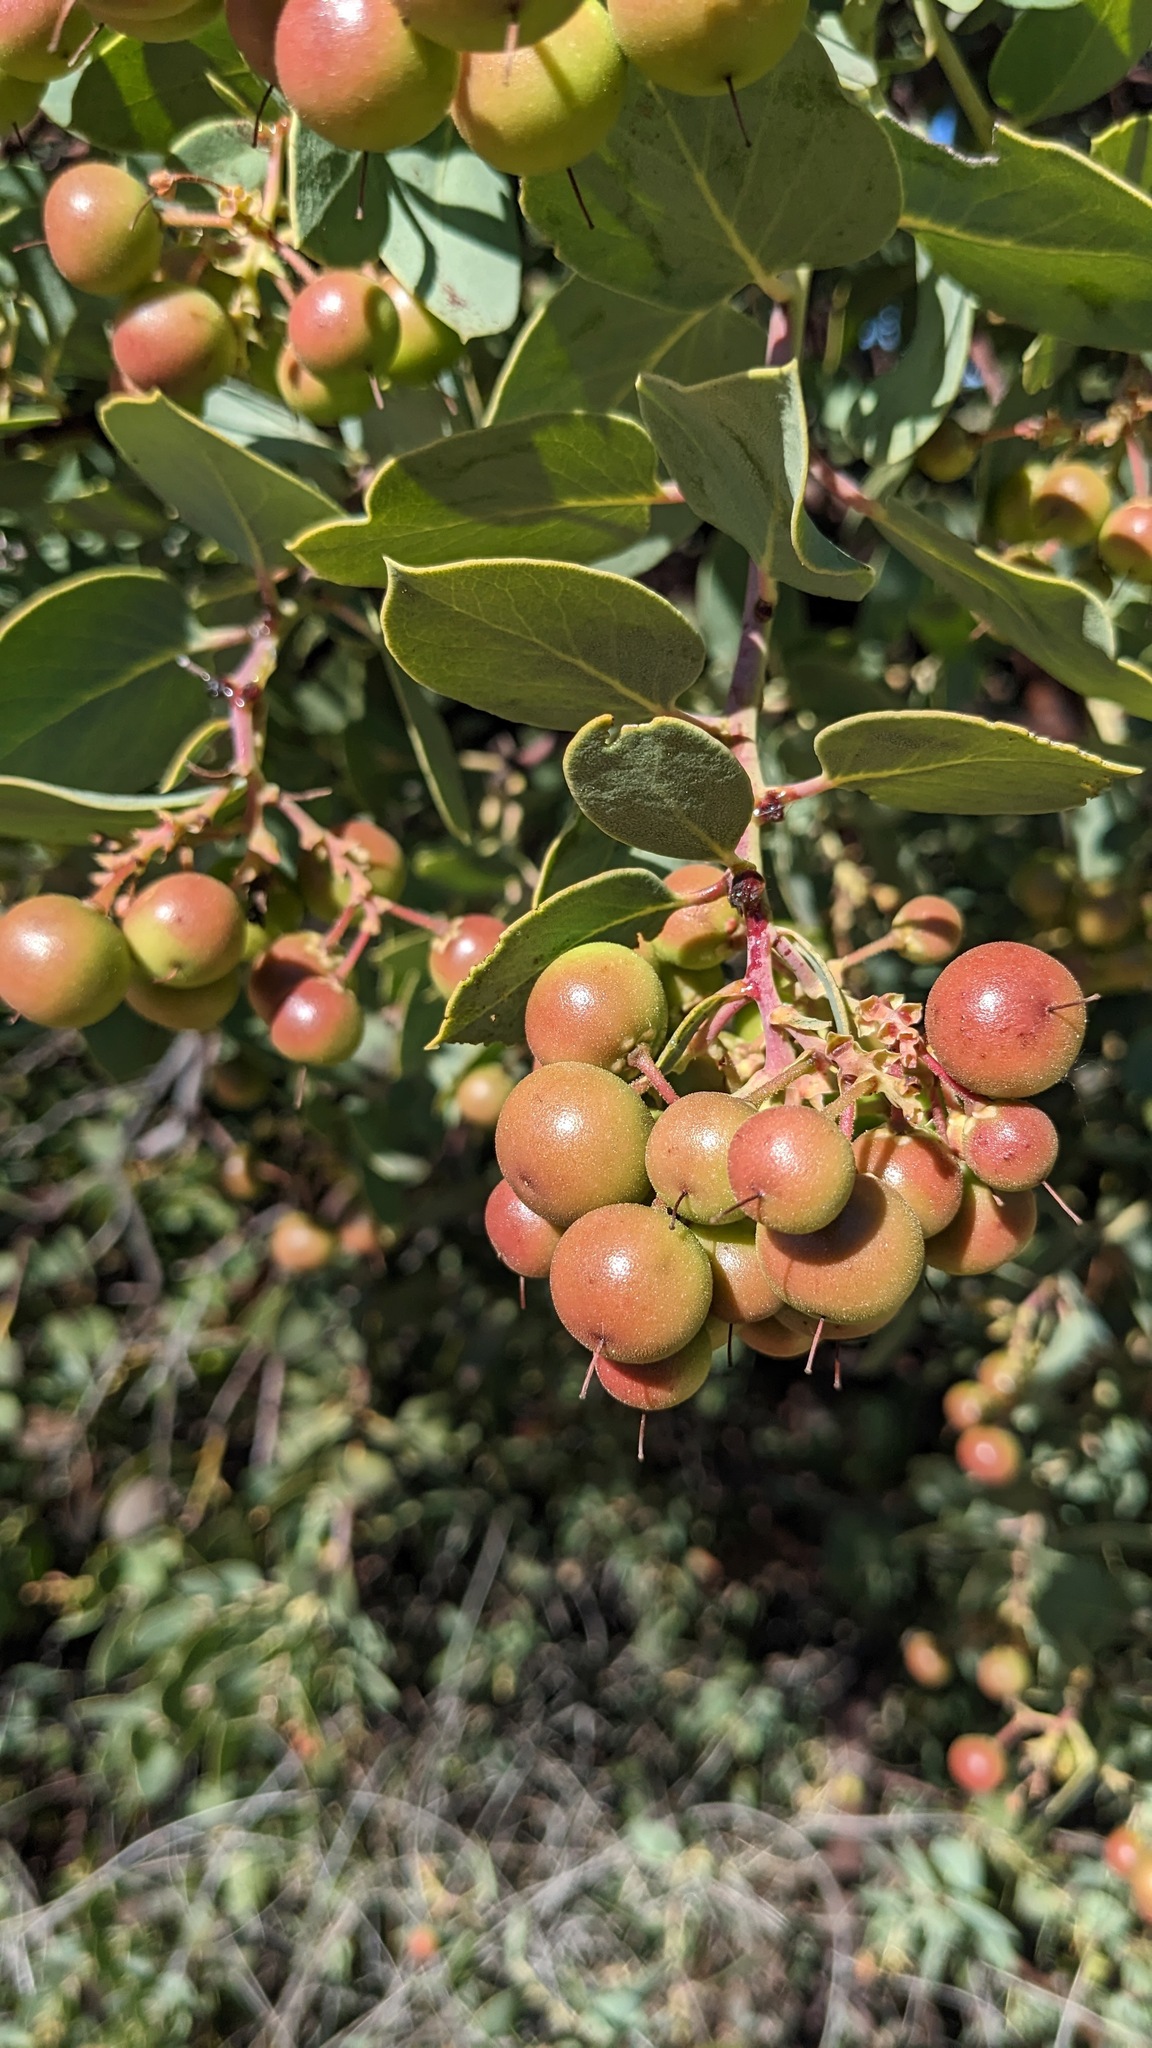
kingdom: Plantae
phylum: Tracheophyta
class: Magnoliopsida
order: Ericales
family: Ericaceae
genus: Arctostaphylos
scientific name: Arctostaphylos glauca
